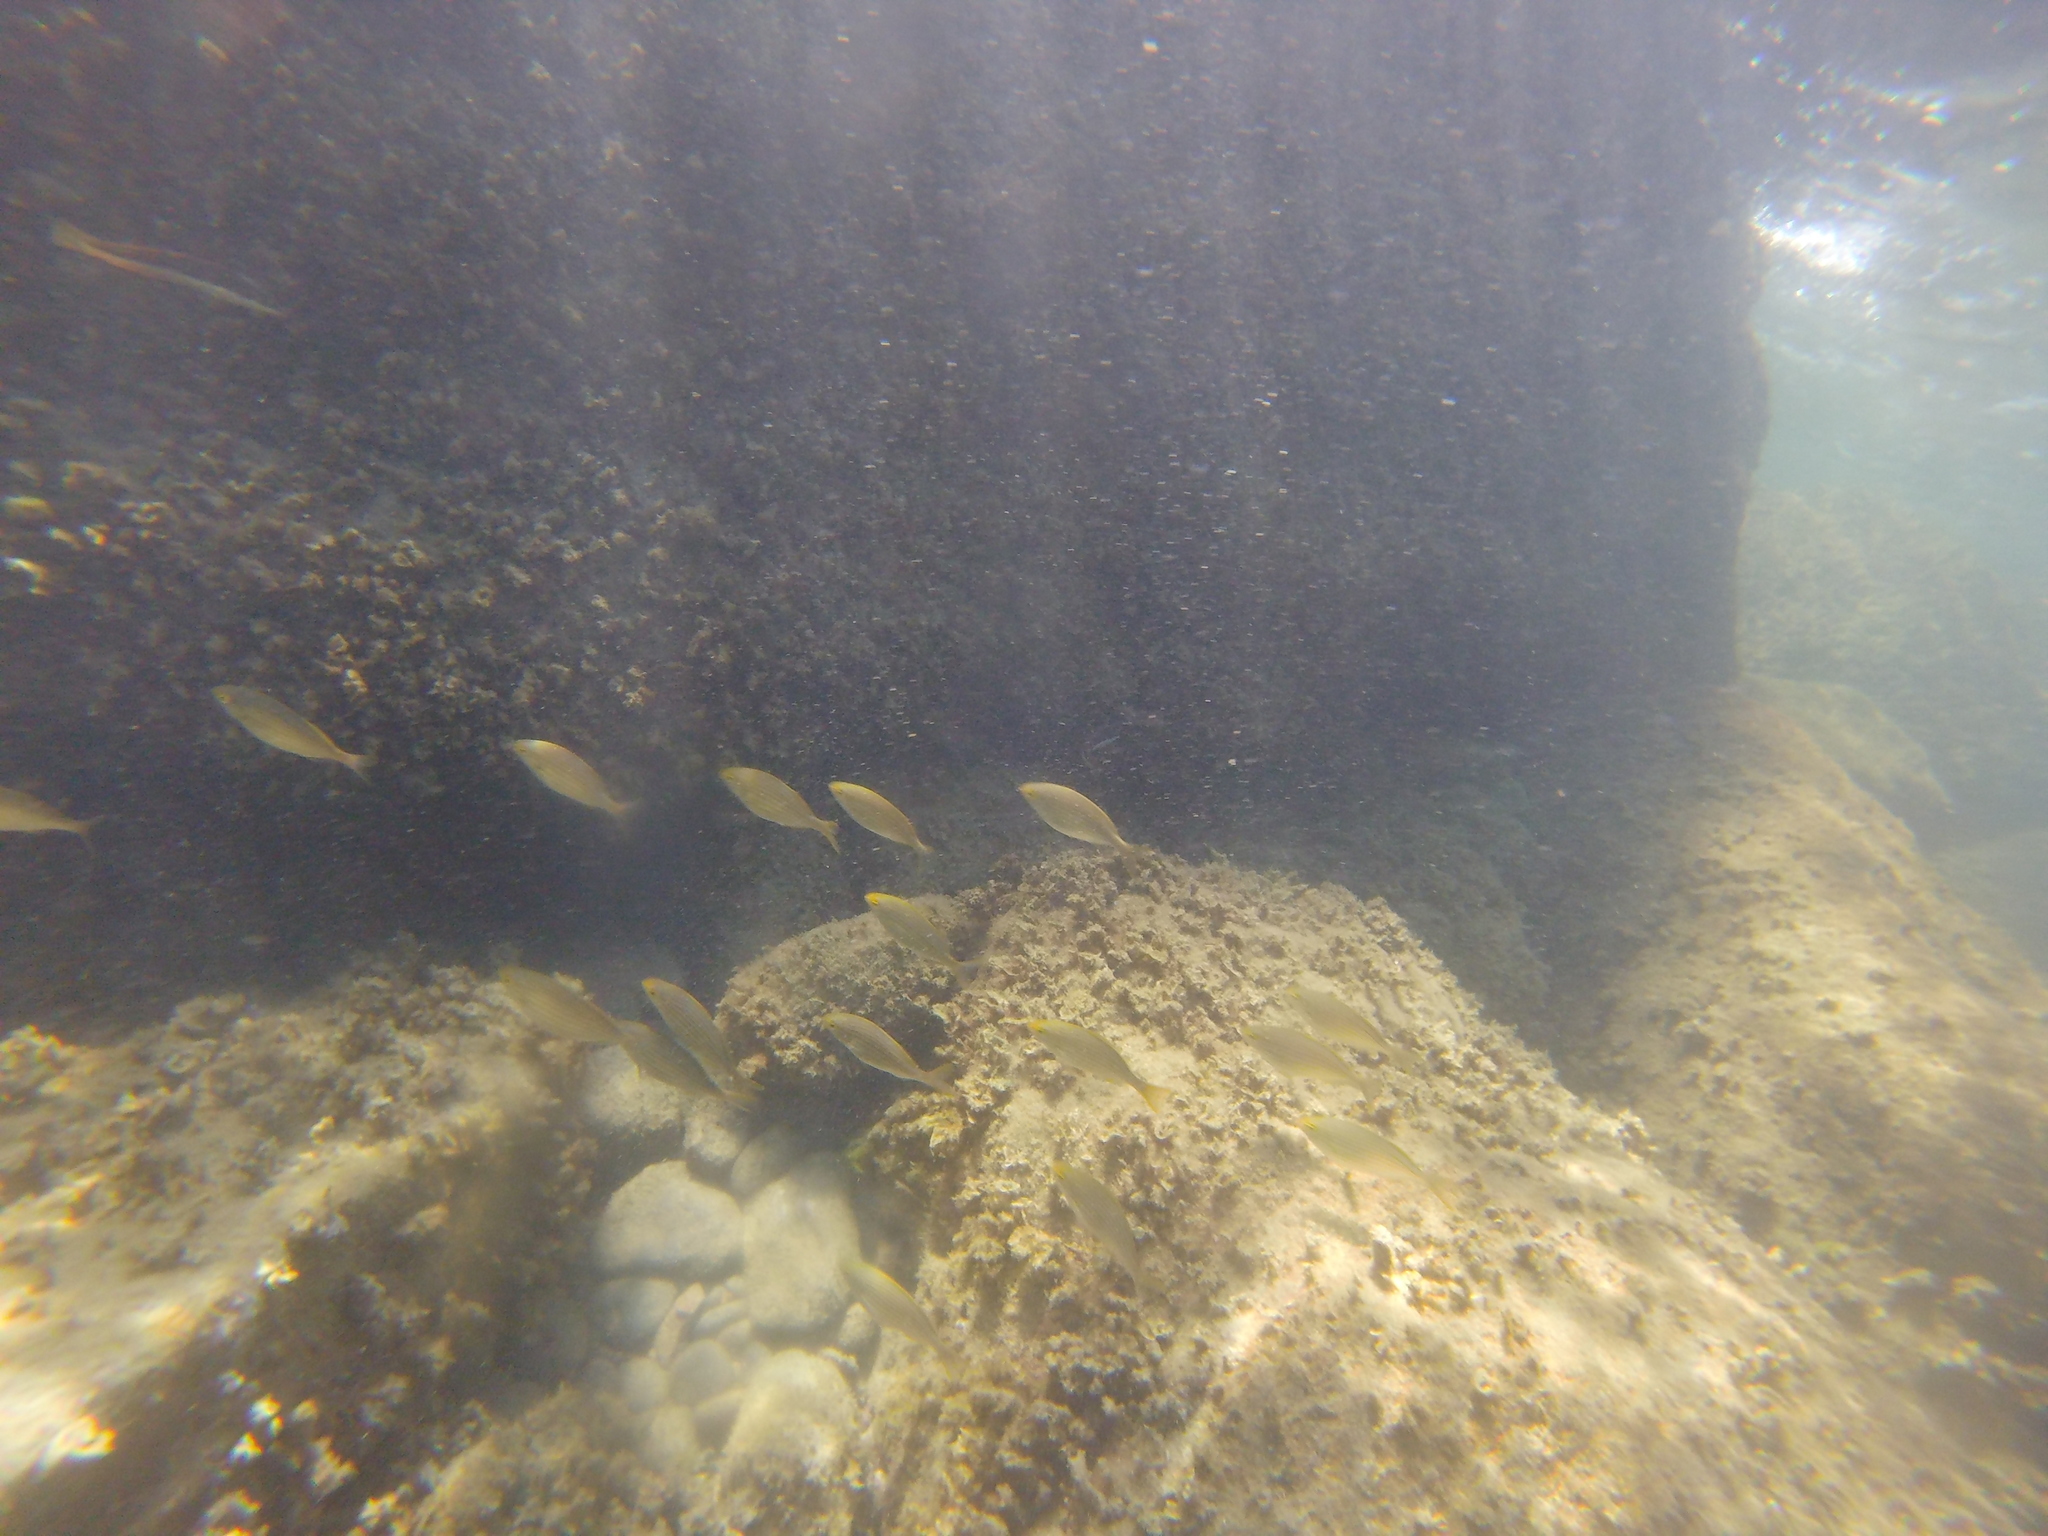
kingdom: Animalia
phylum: Chordata
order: Perciformes
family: Sparidae
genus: Sarpa
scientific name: Sarpa salpa
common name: Salema
